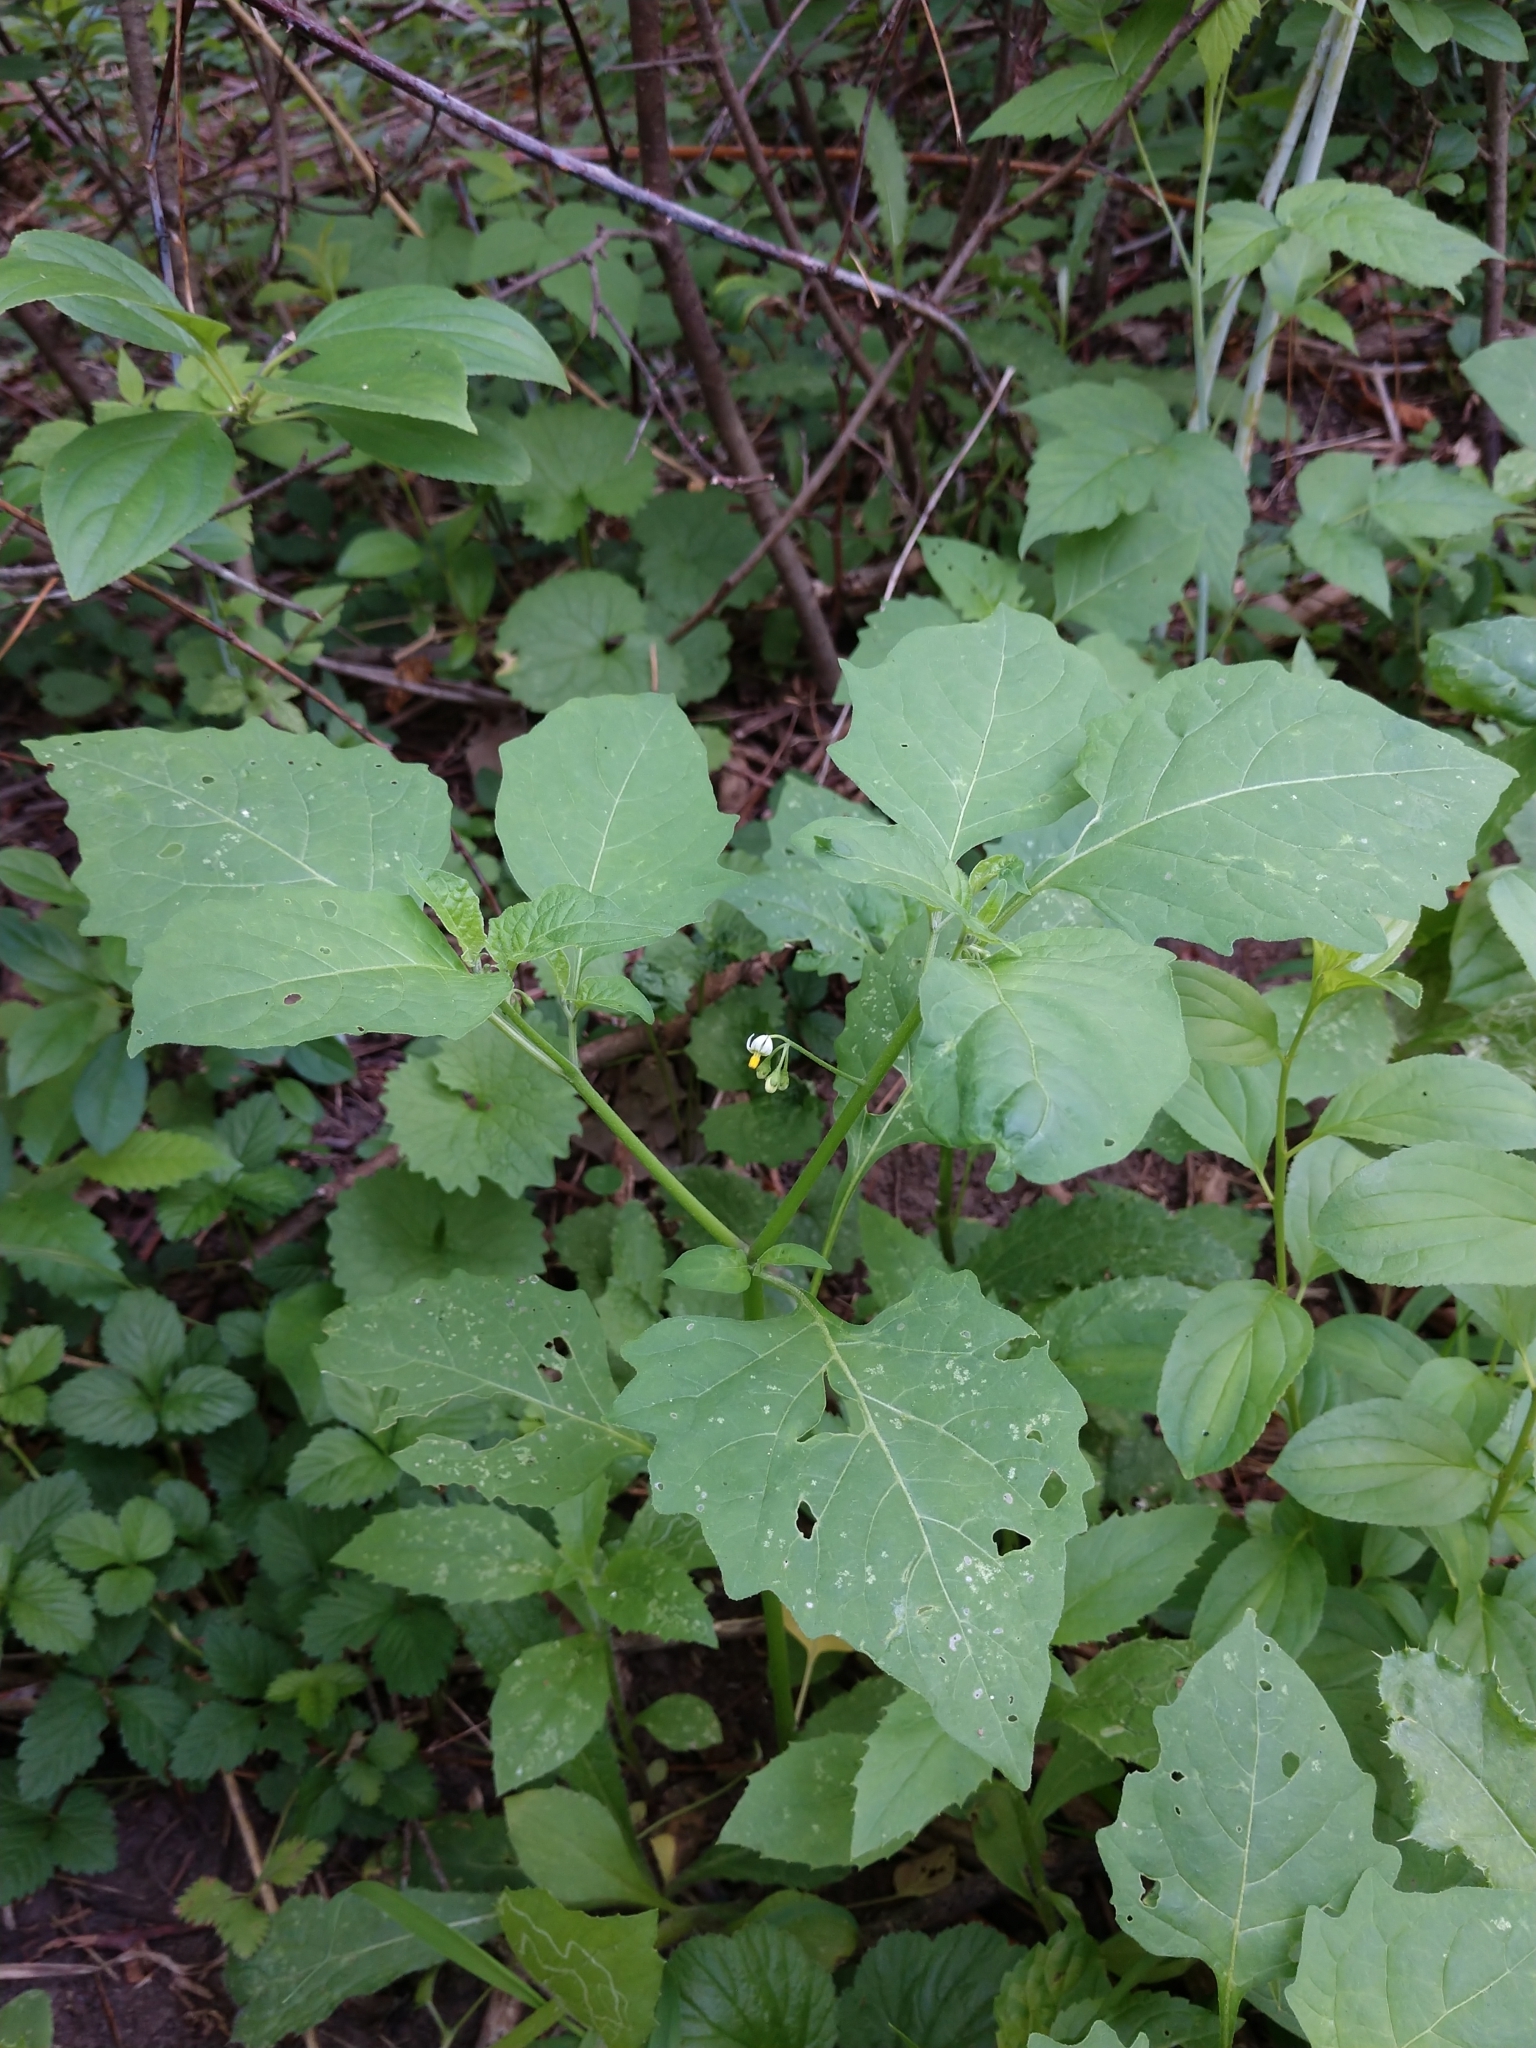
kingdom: Plantae
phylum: Tracheophyta
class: Magnoliopsida
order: Solanales
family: Solanaceae
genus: Solanum
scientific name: Solanum emulans
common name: Eastern black nightshade
